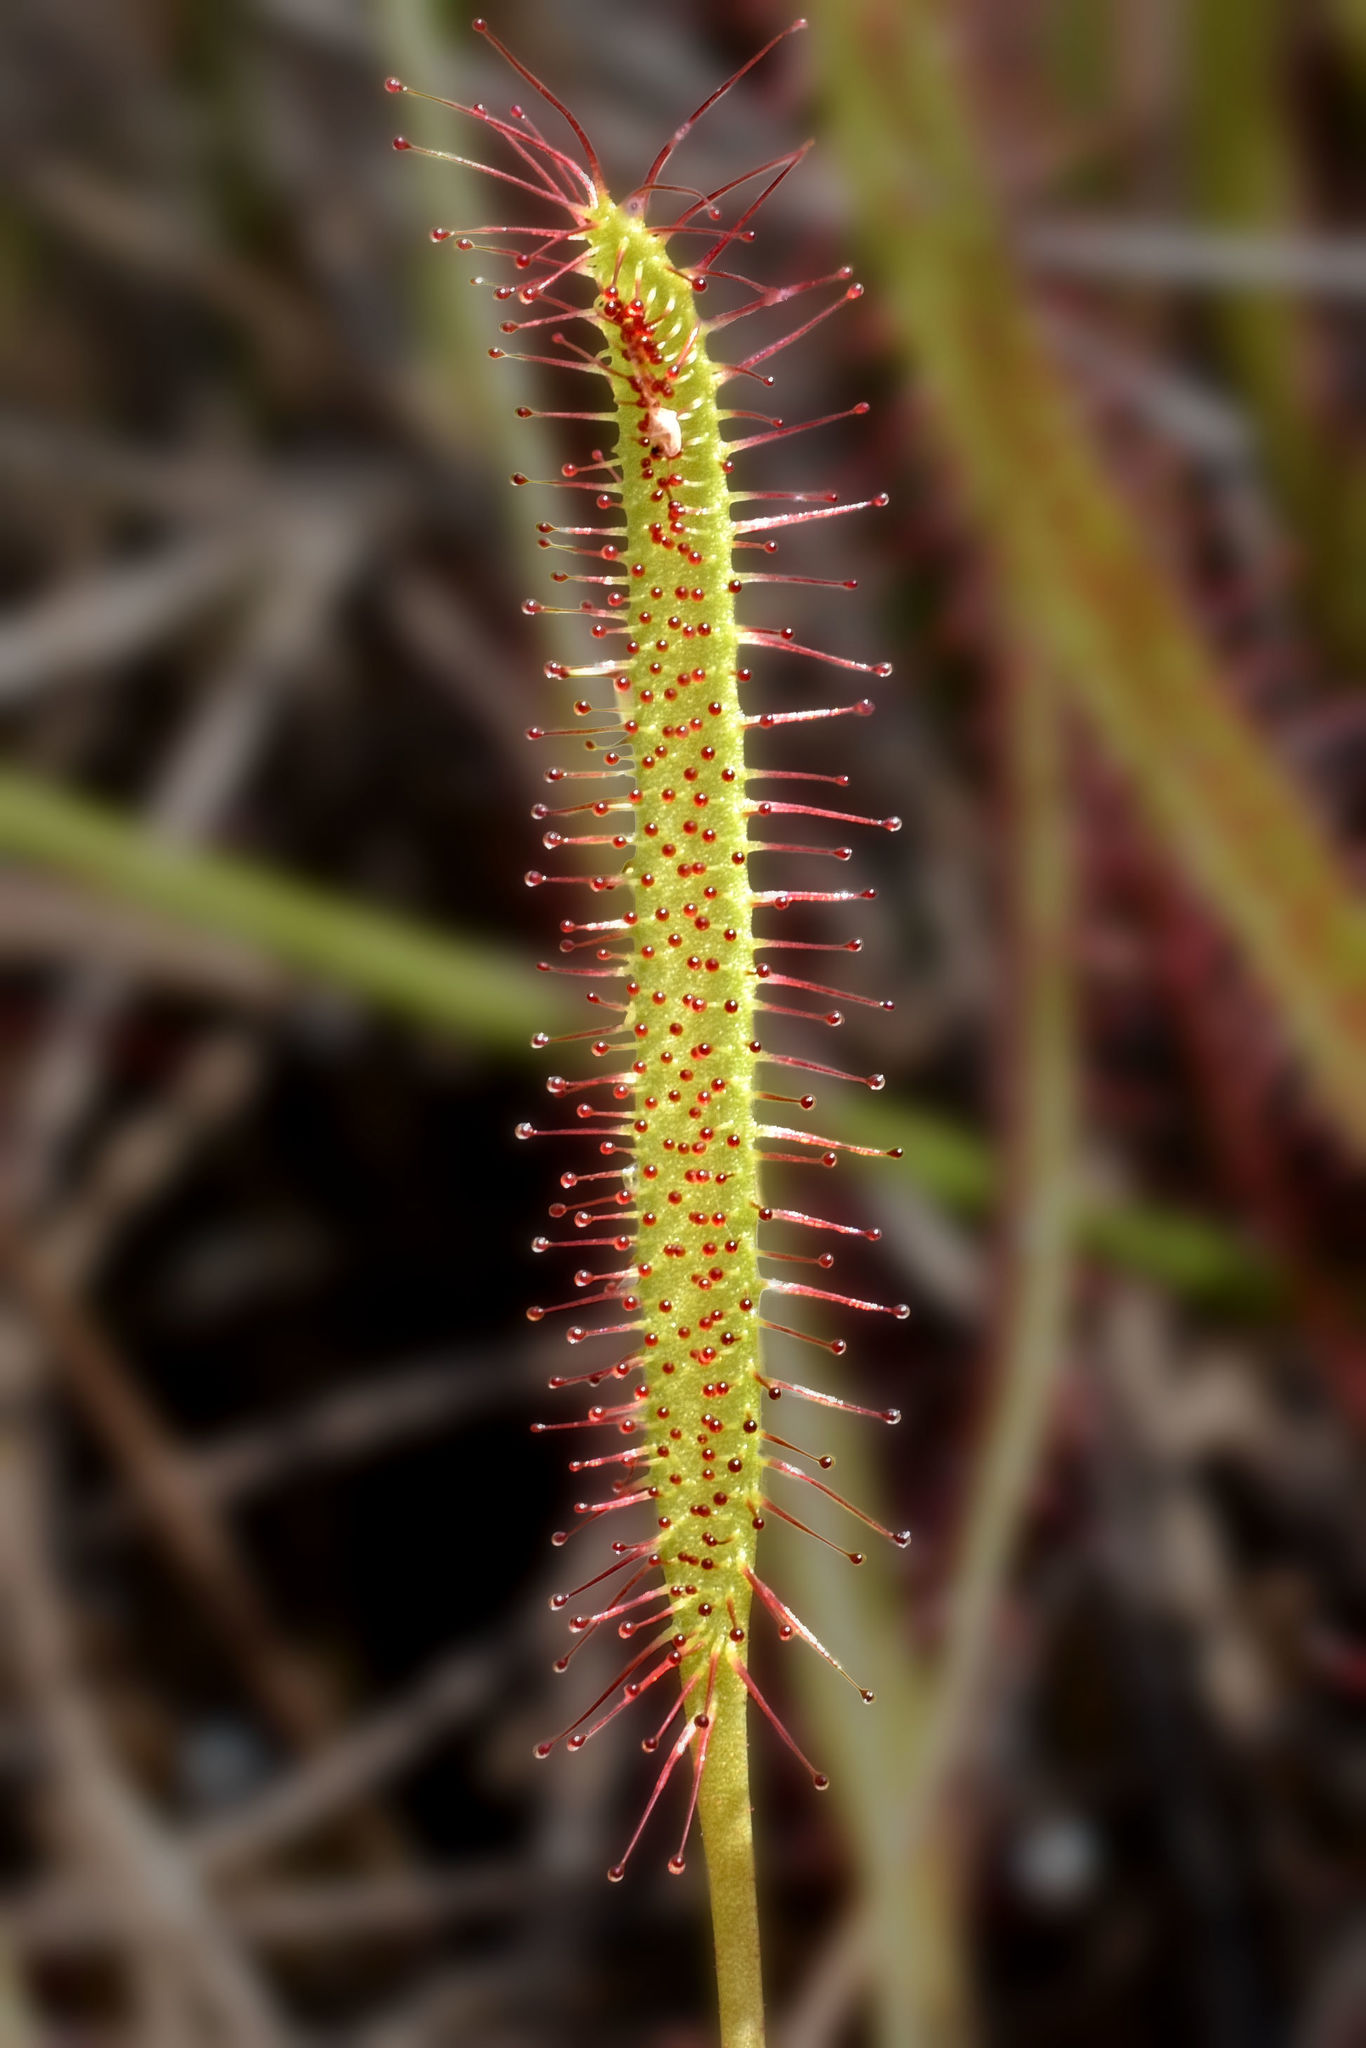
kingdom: Plantae
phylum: Tracheophyta
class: Magnoliopsida
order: Caryophyllales
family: Droseraceae
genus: Drosera
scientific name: Drosera linearis
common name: Linear-leaved sundew
